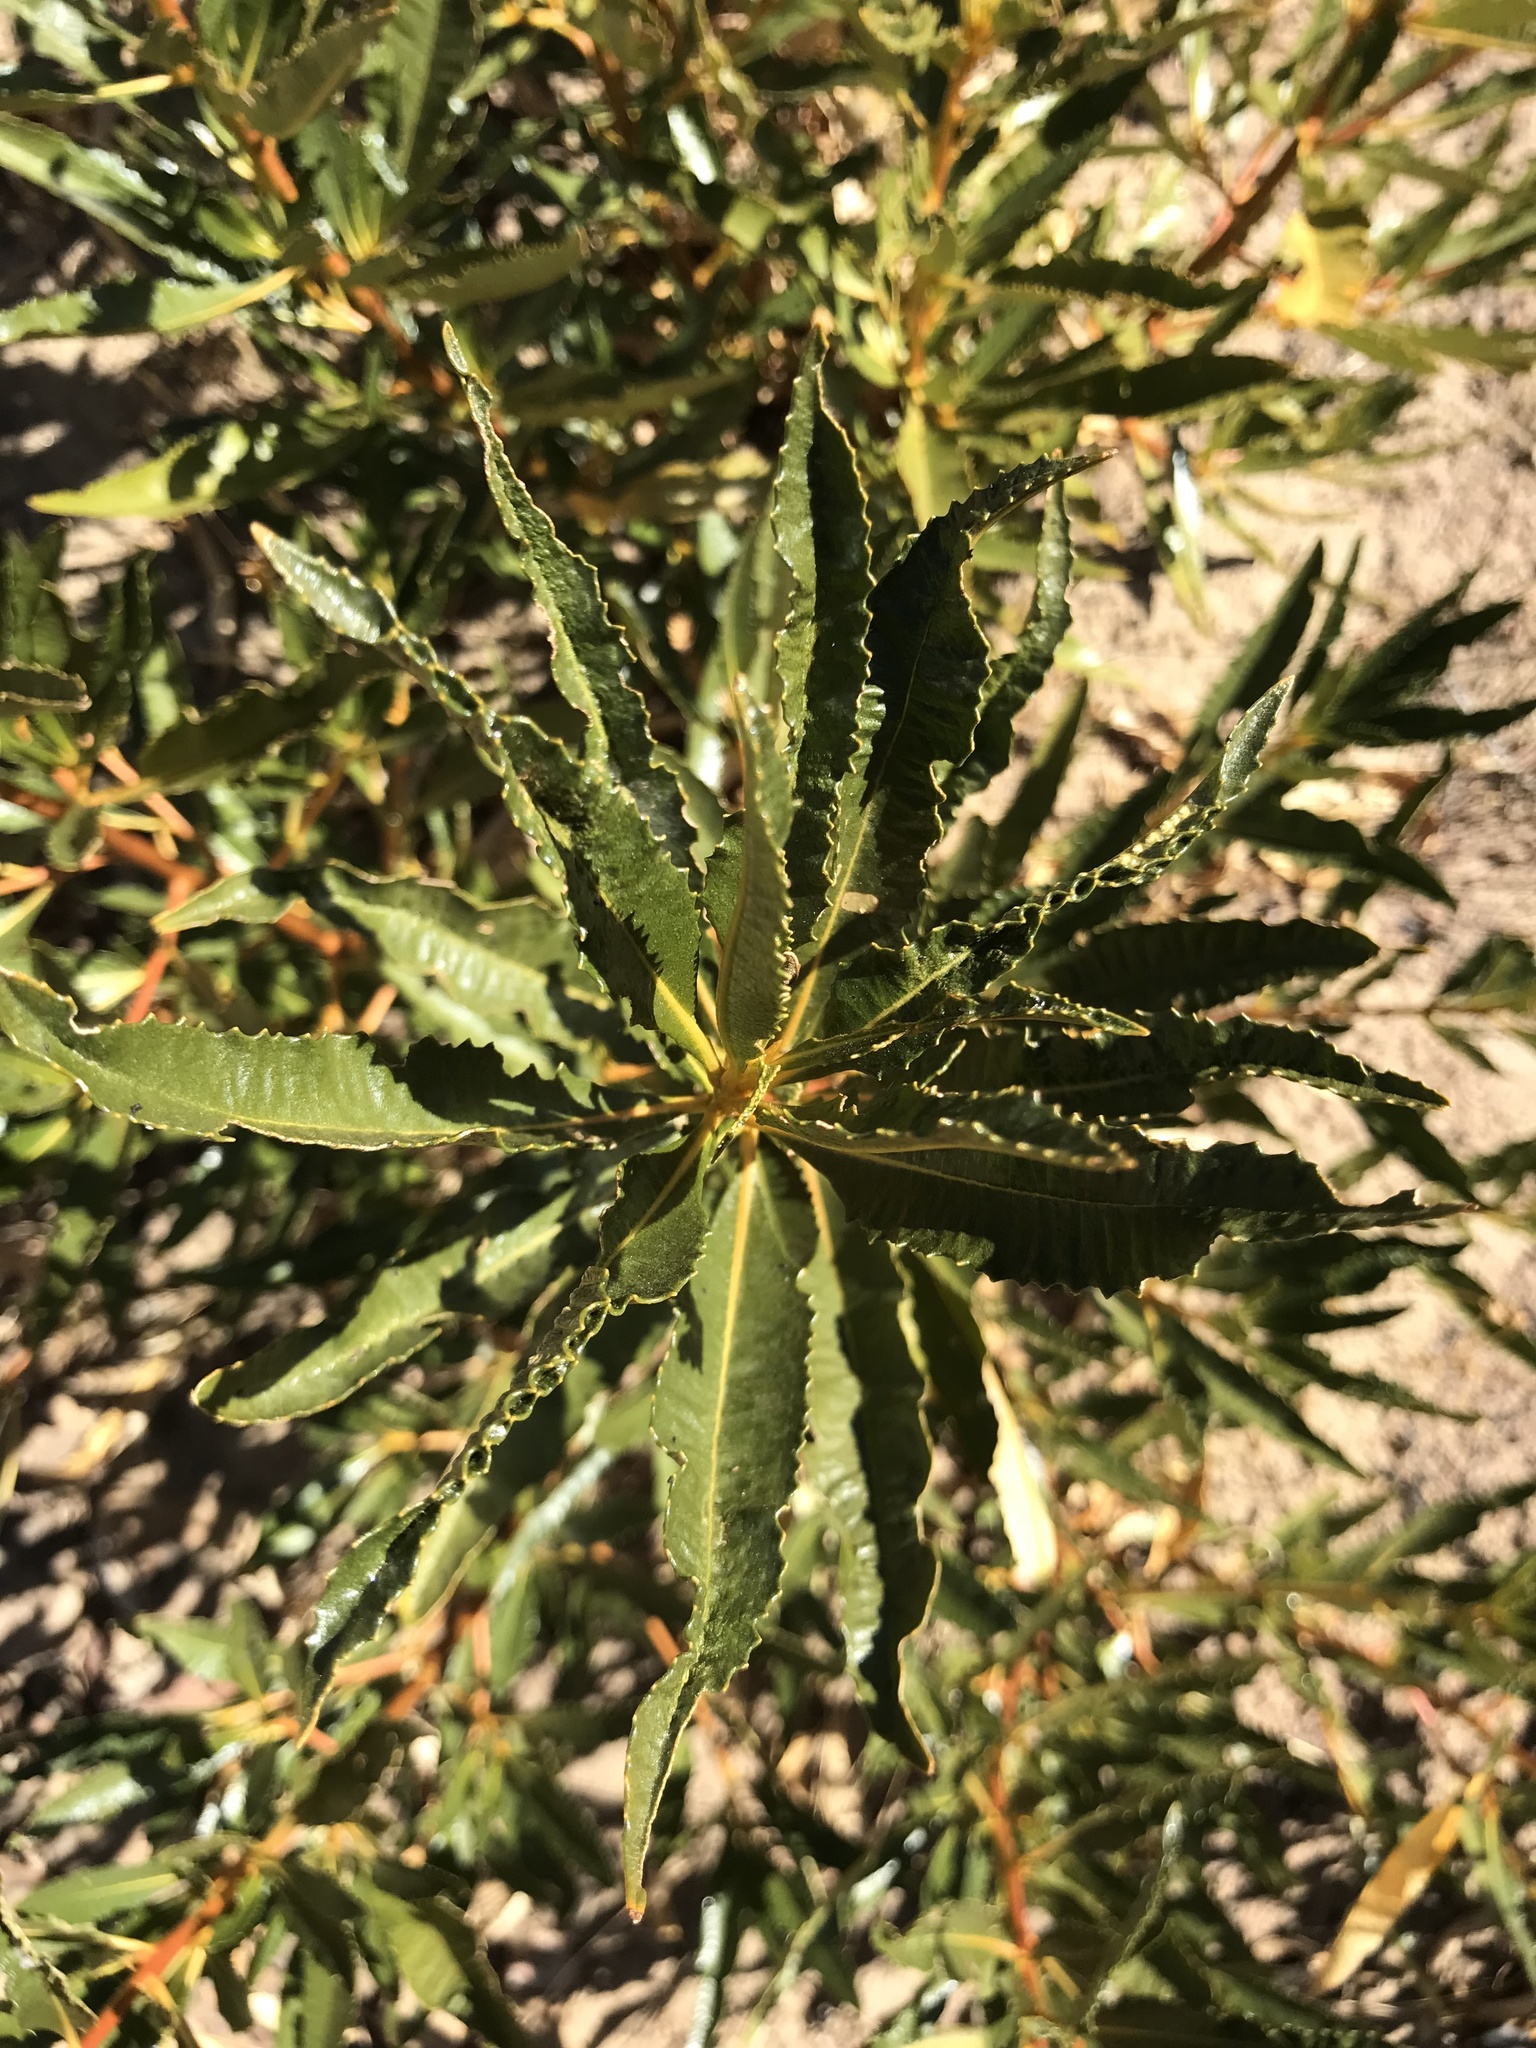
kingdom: Plantae
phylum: Tracheophyta
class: Magnoliopsida
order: Boraginales
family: Namaceae
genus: Eriodictyon
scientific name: Eriodictyon californicum
